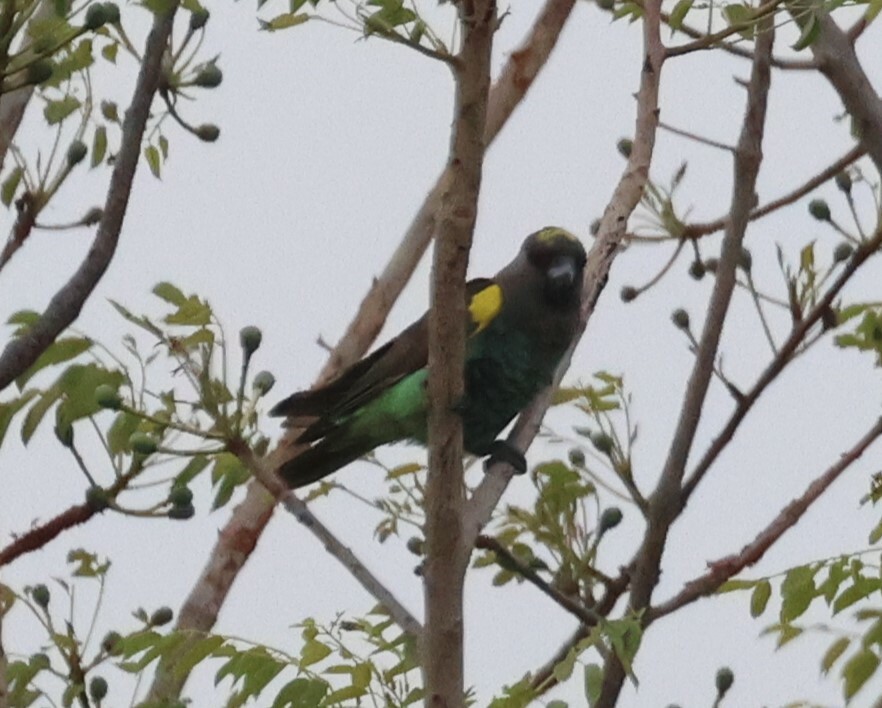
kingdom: Animalia
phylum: Chordata
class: Aves
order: Psittaciformes
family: Psittacidae
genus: Poicephalus
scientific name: Poicephalus meyeri
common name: Meyer's parrot
